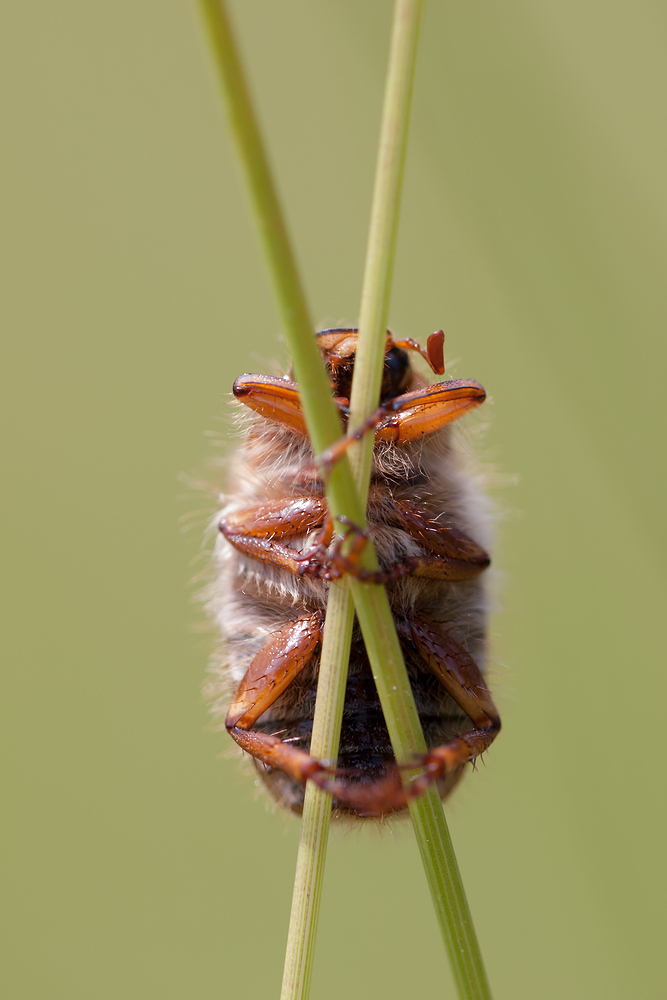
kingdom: Animalia
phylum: Arthropoda
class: Insecta
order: Coleoptera
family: Scarabaeidae
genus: Amphimallon
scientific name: Amphimallon solstitiale
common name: Summer chafer
